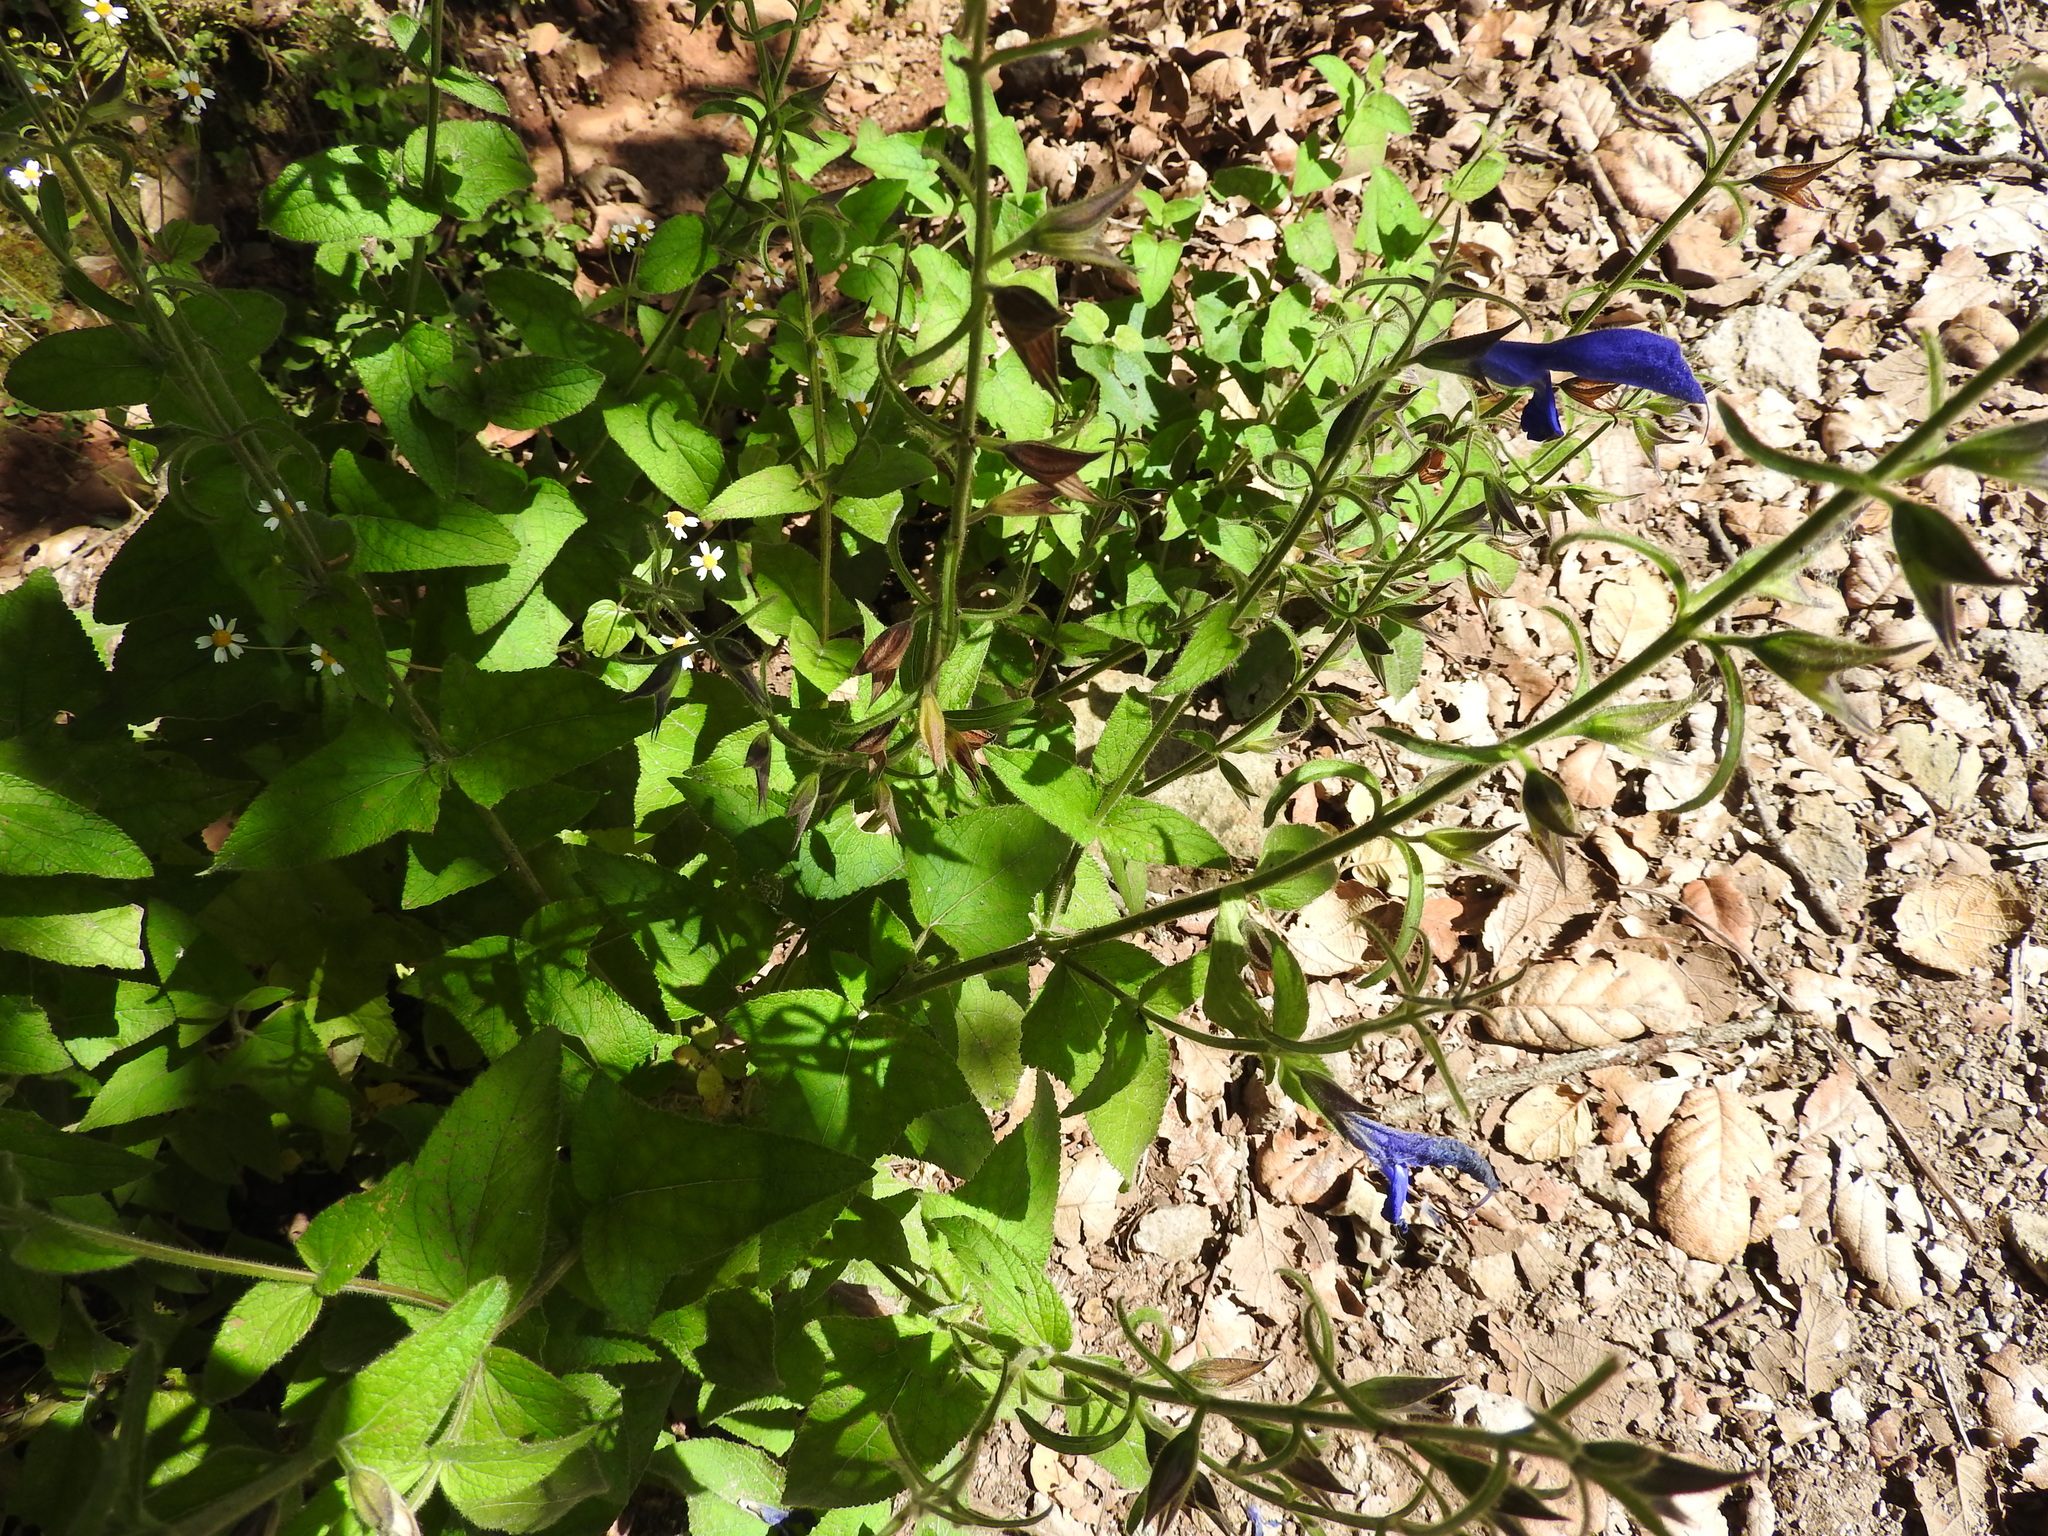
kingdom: Plantae
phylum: Tracheophyta
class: Magnoliopsida
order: Lamiales
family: Lamiaceae
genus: Salvia
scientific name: Salvia patens
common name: Blue sage
